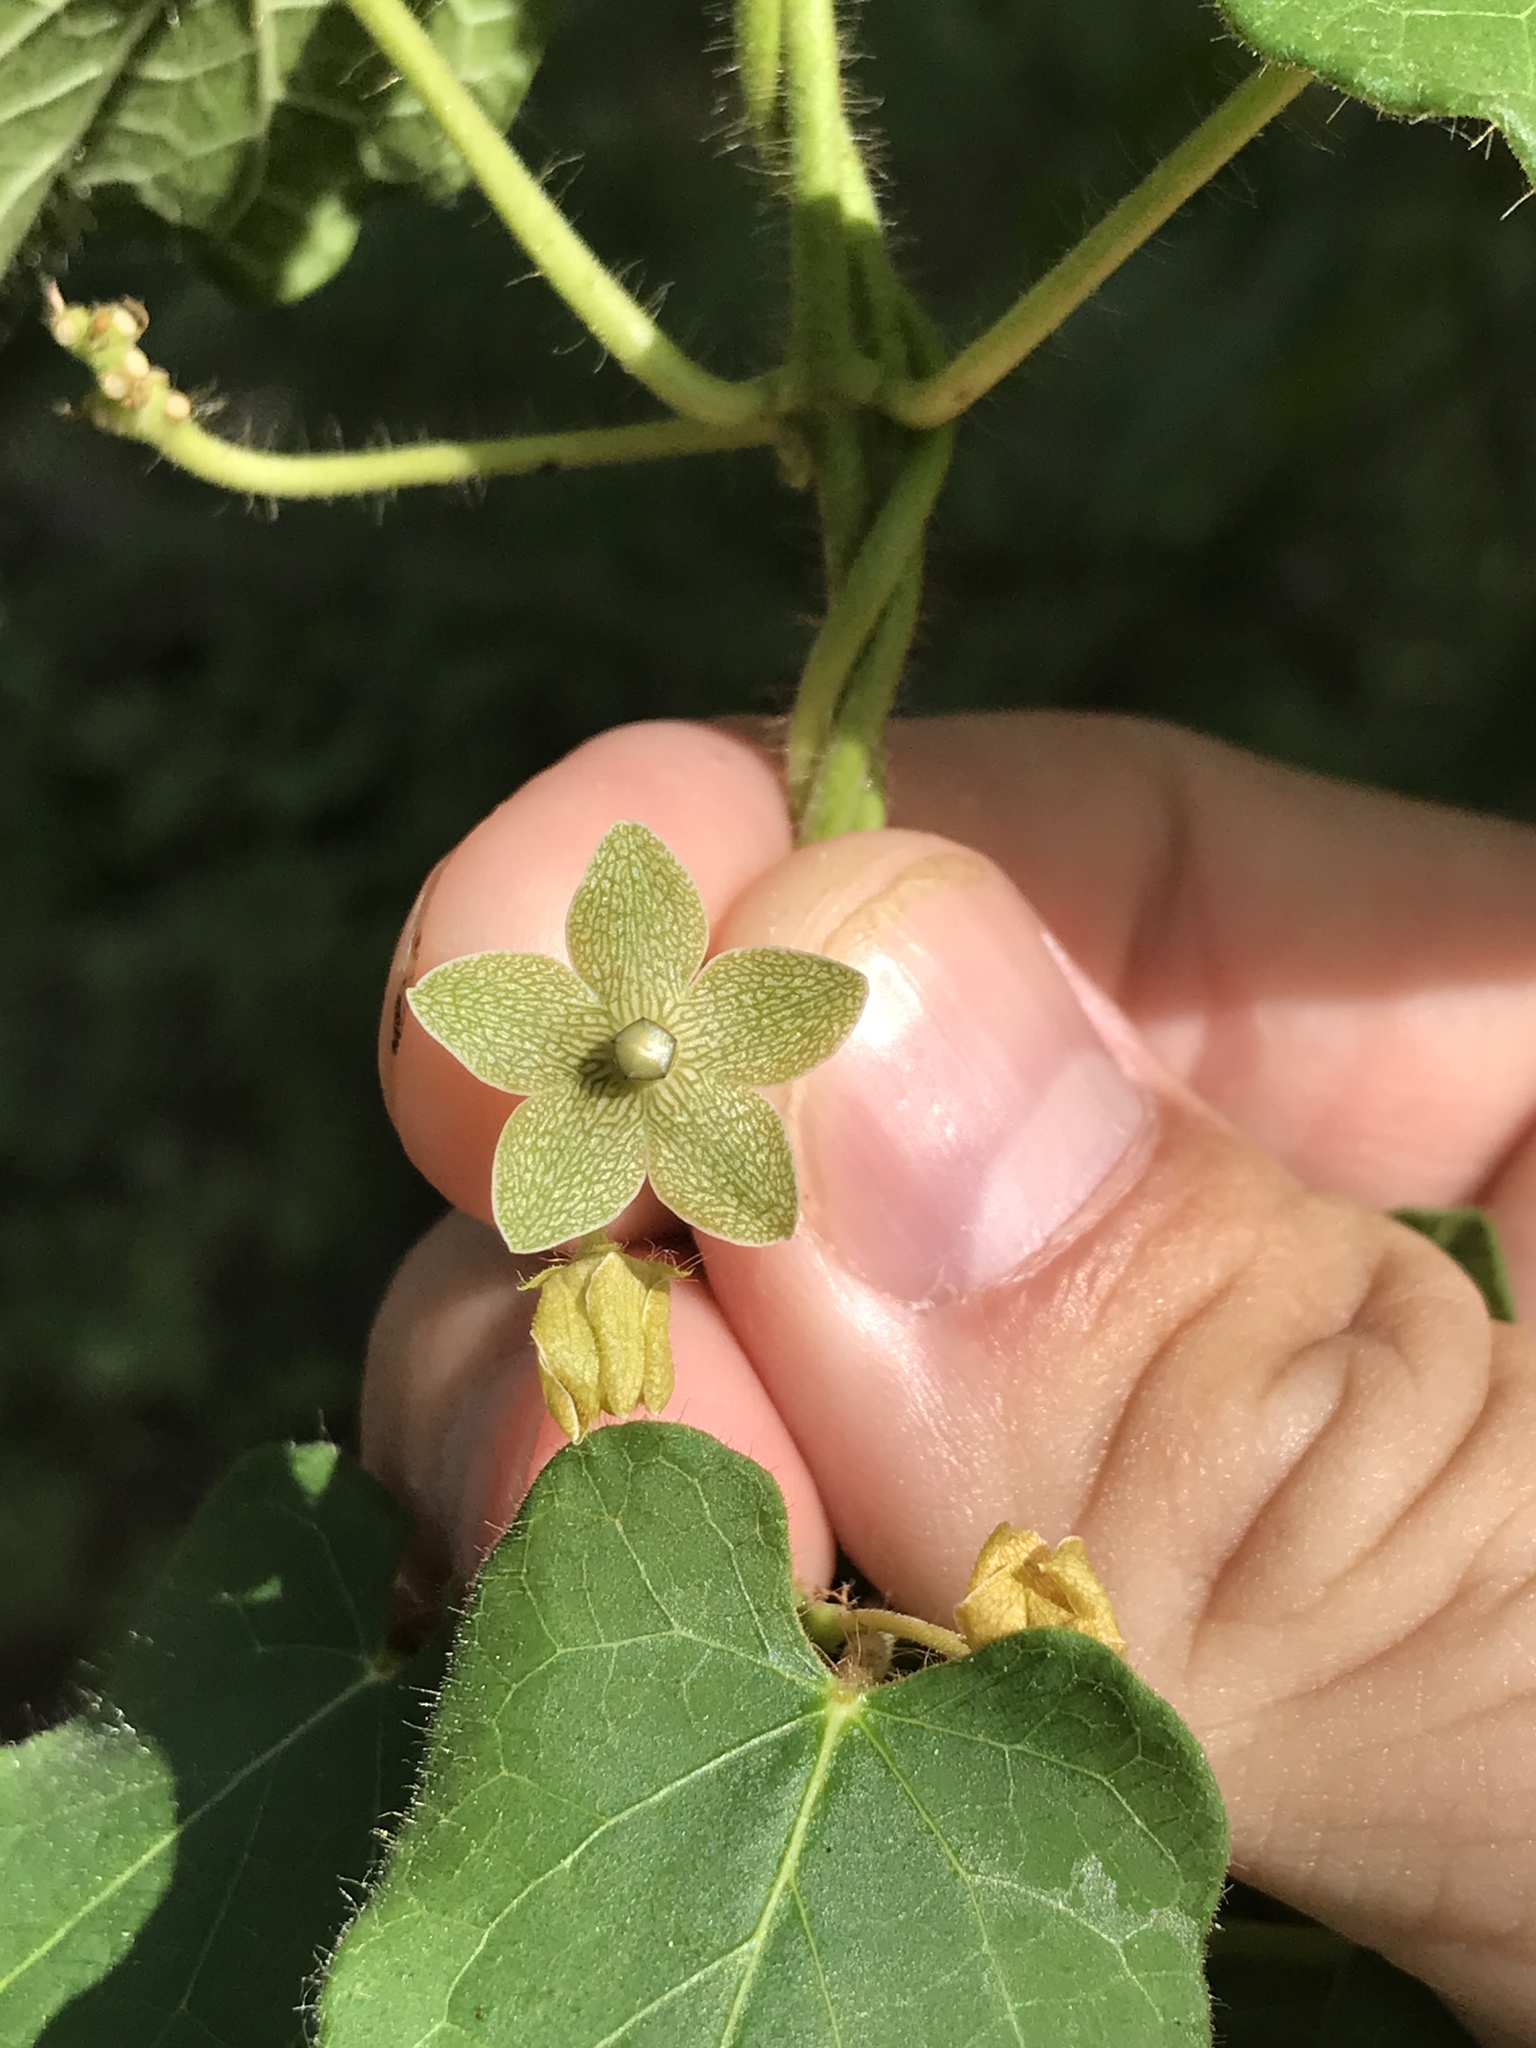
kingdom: Plantae
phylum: Tracheophyta
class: Magnoliopsida
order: Gentianales
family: Apocynaceae
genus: Dictyanthus
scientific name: Dictyanthus reticulatus
